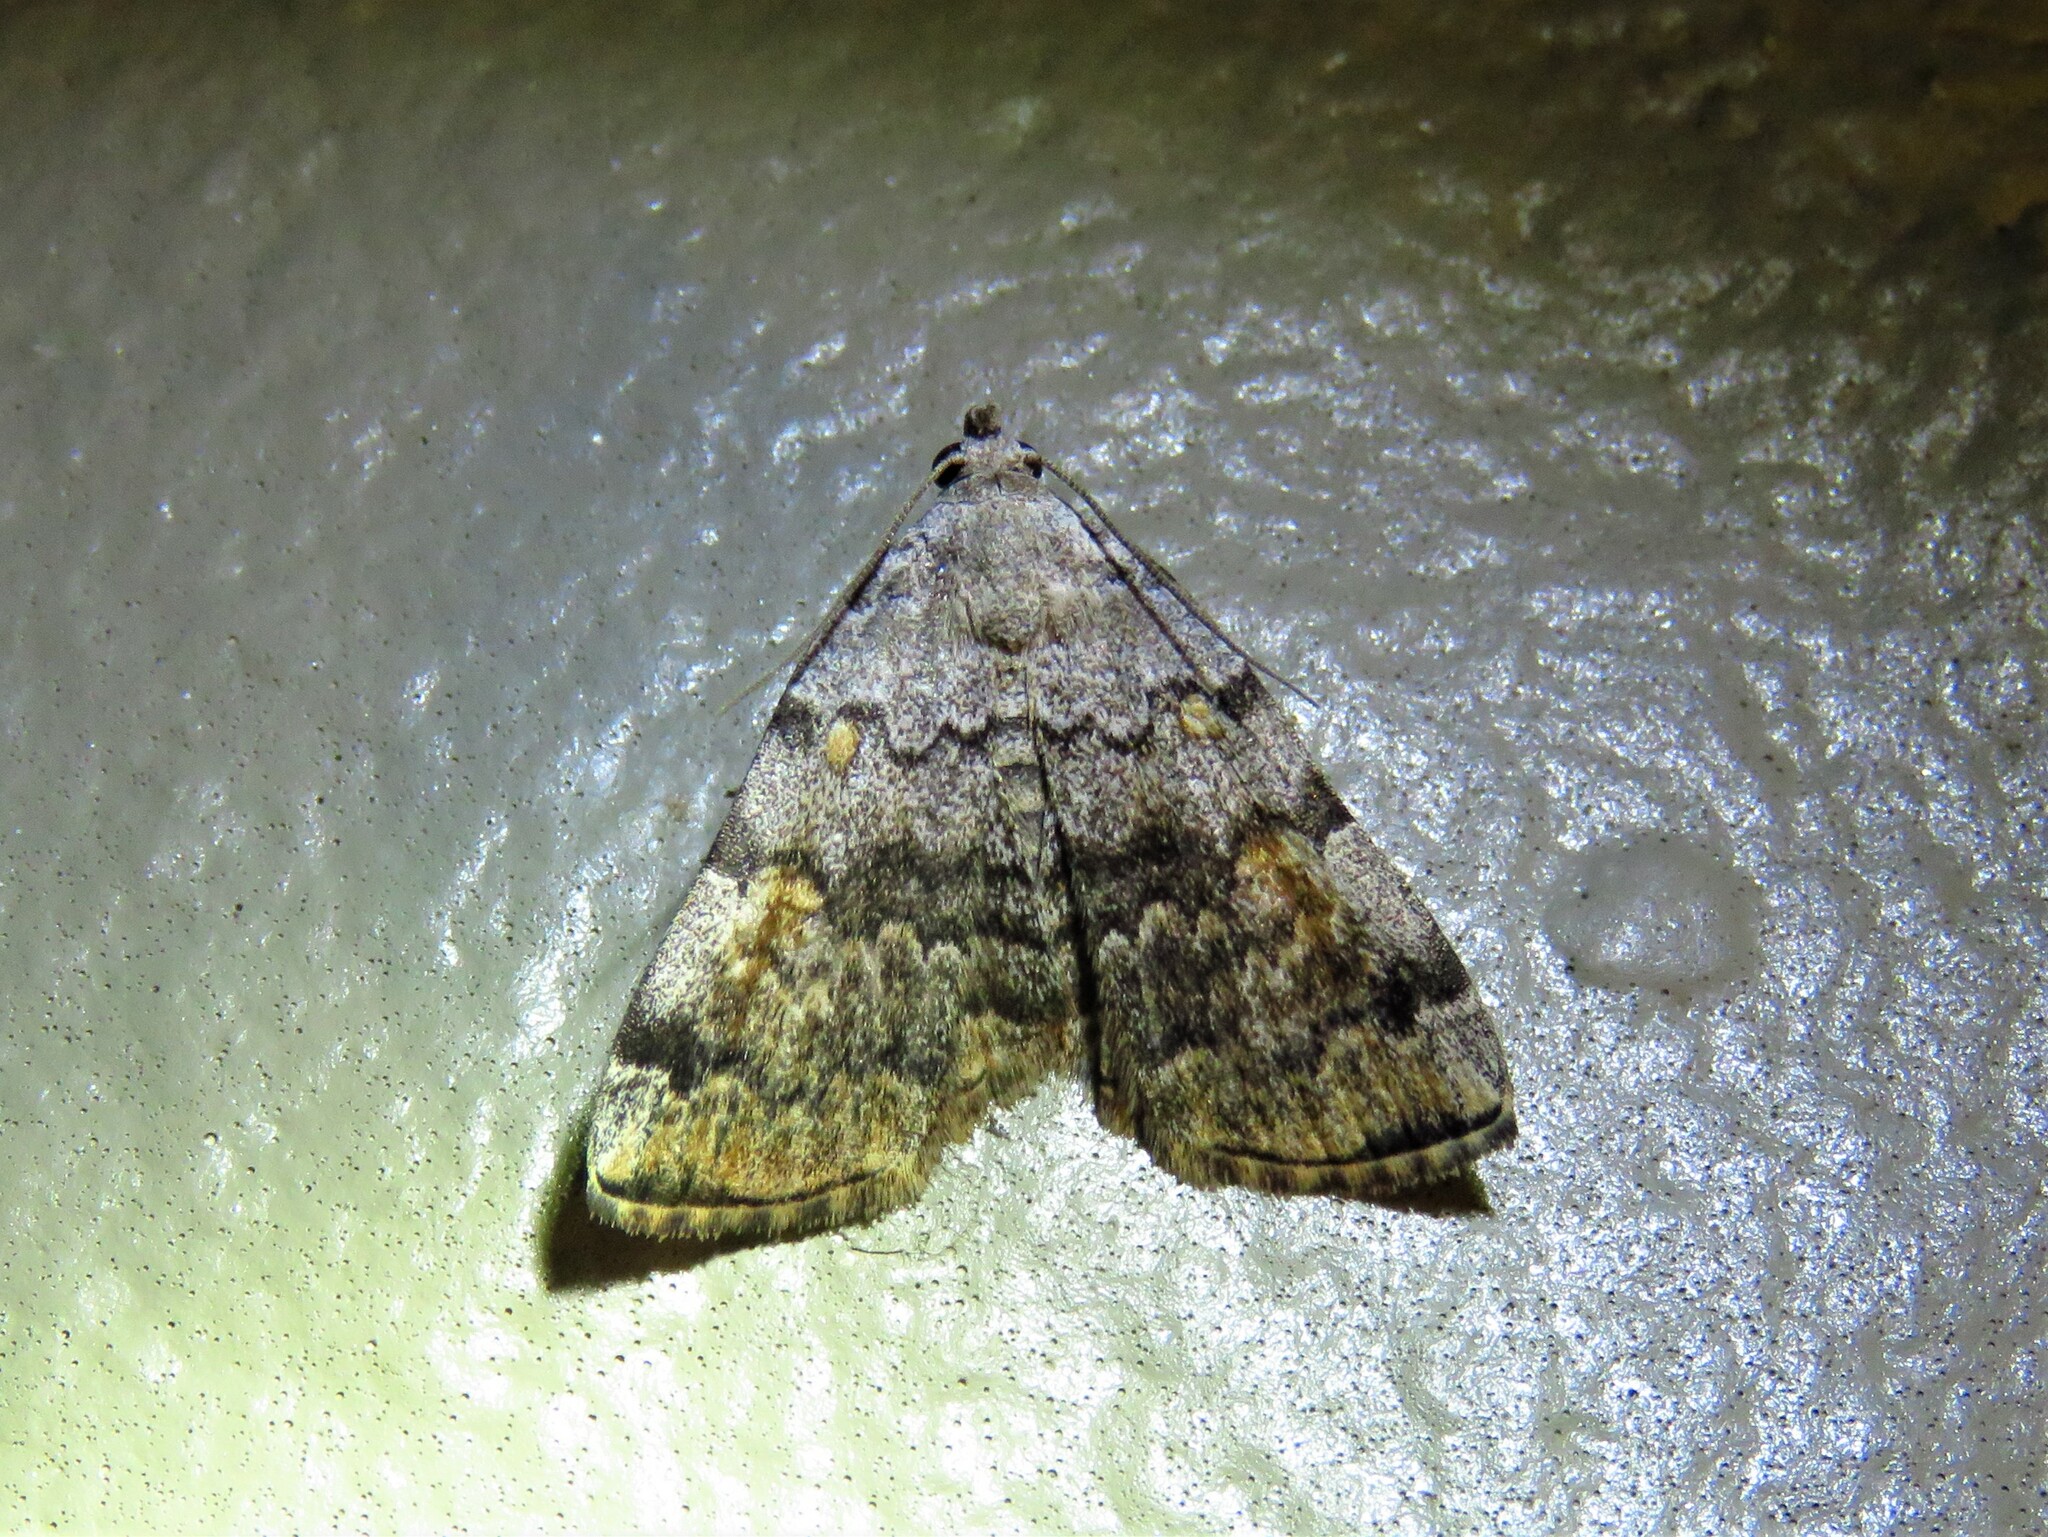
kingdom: Animalia
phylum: Arthropoda
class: Insecta
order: Lepidoptera
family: Erebidae
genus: Idia
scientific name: Idia americalis
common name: American idia moth
